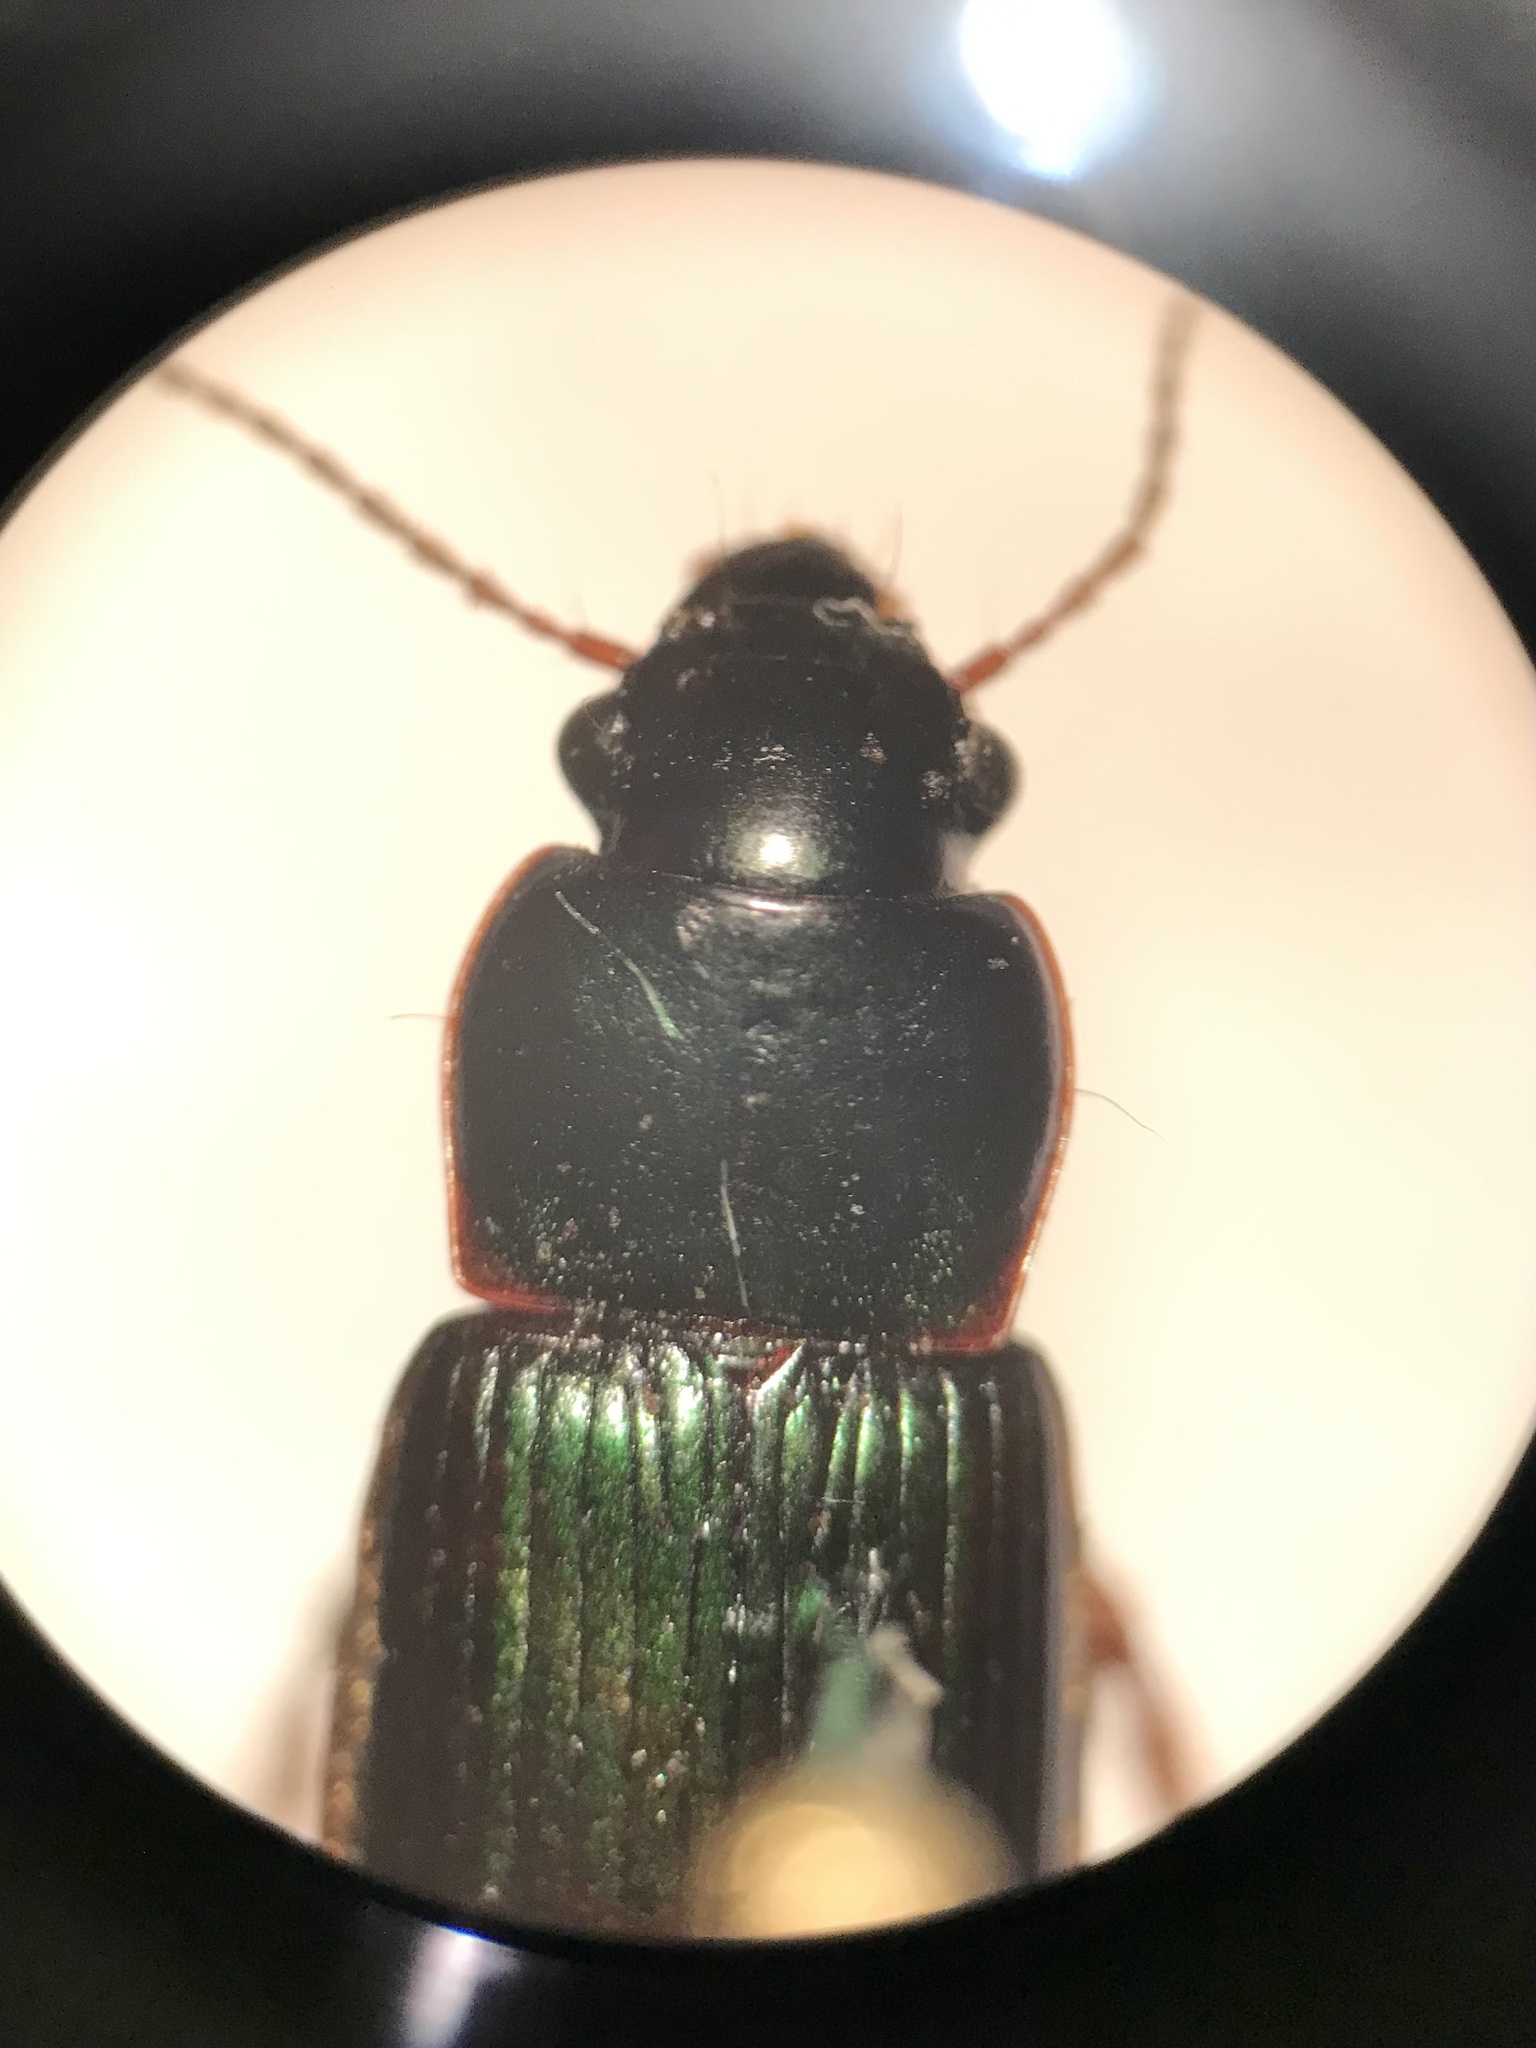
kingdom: Animalia
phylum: Arthropoda
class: Insecta
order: Coleoptera
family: Carabidae
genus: Harpalus
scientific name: Harpalus affinis
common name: Polychrome harp ground beetle
